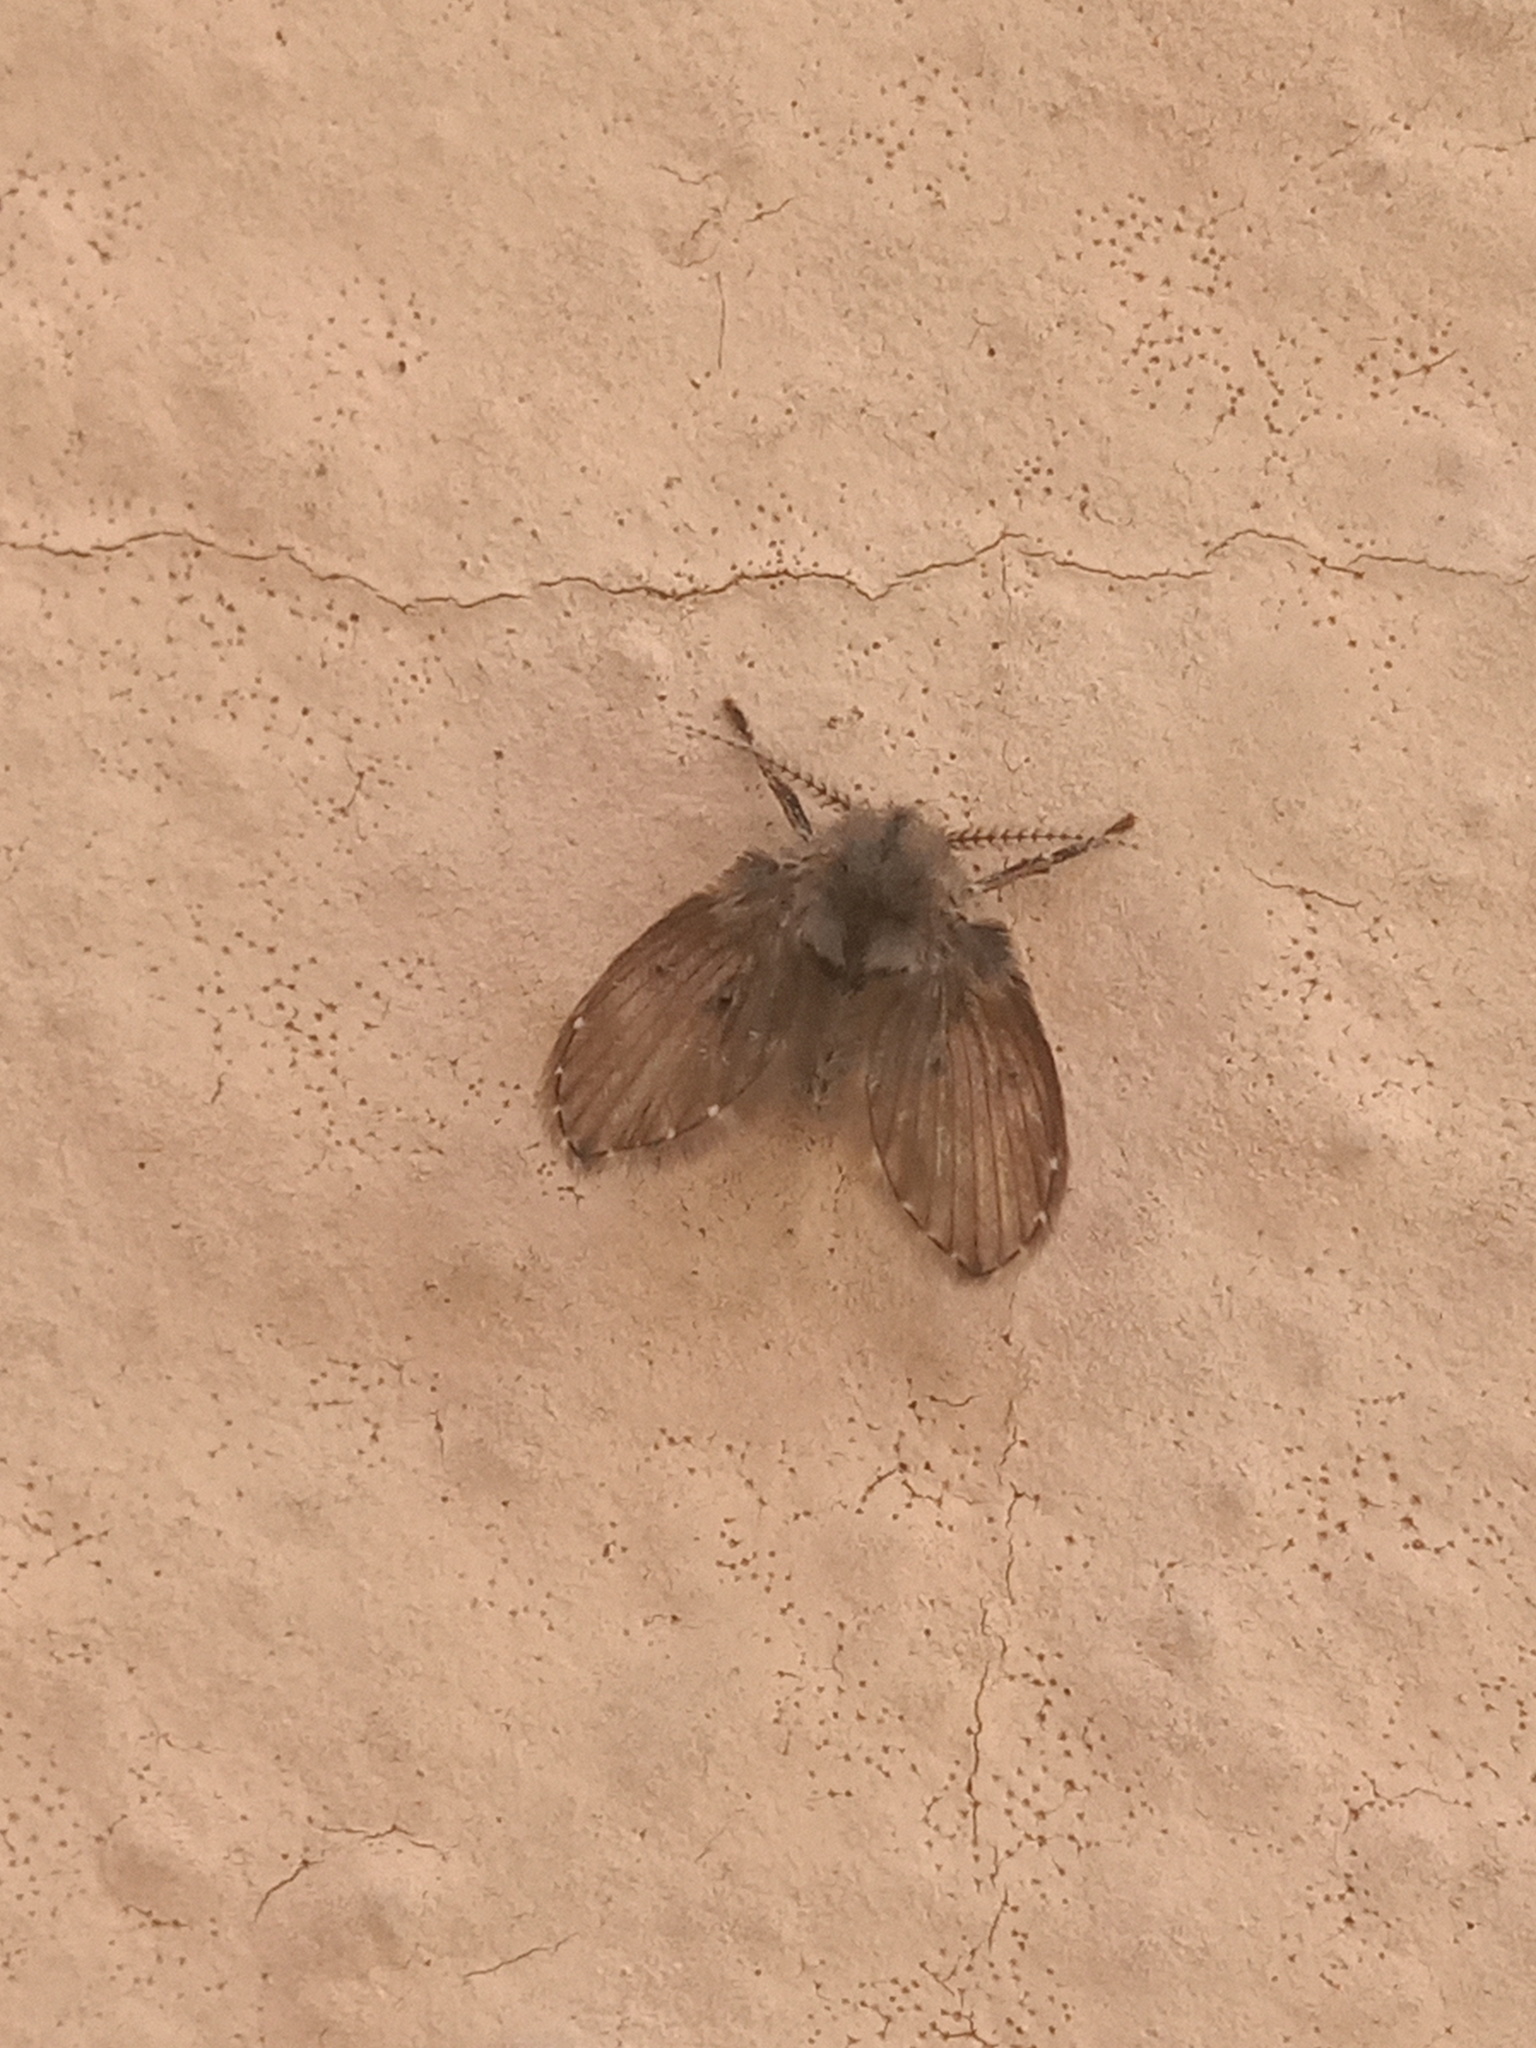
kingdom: Animalia
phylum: Arthropoda
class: Insecta
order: Diptera
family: Psychodidae
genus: Clogmia
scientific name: Clogmia albipunctatus
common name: White-spotted moth fly
